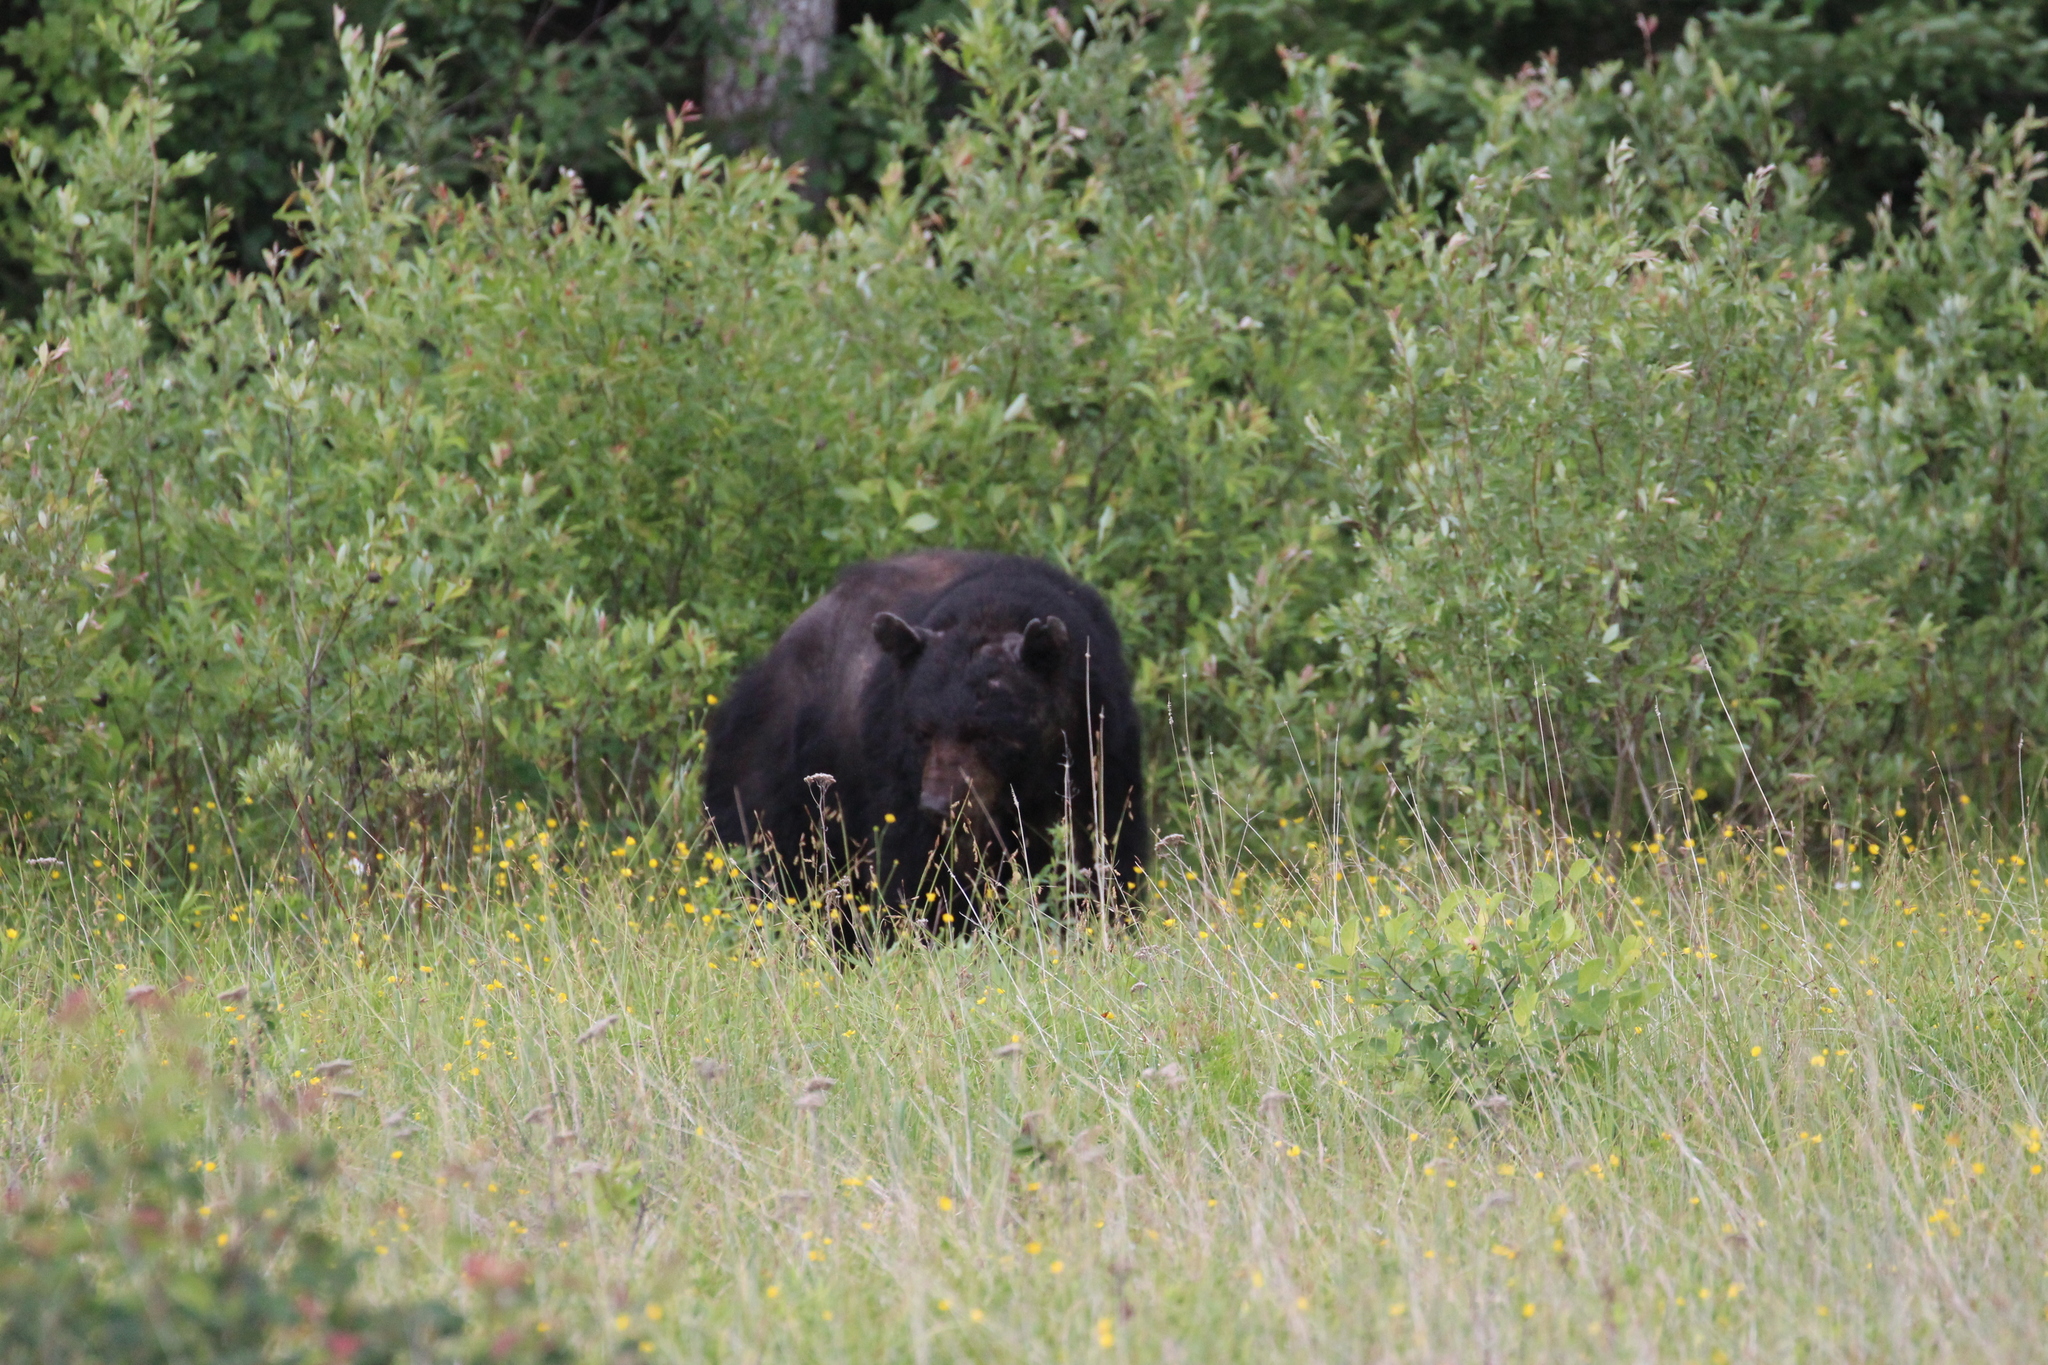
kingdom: Animalia
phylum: Chordata
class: Mammalia
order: Carnivora
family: Ursidae
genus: Ursus
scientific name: Ursus americanus
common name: American black bear
